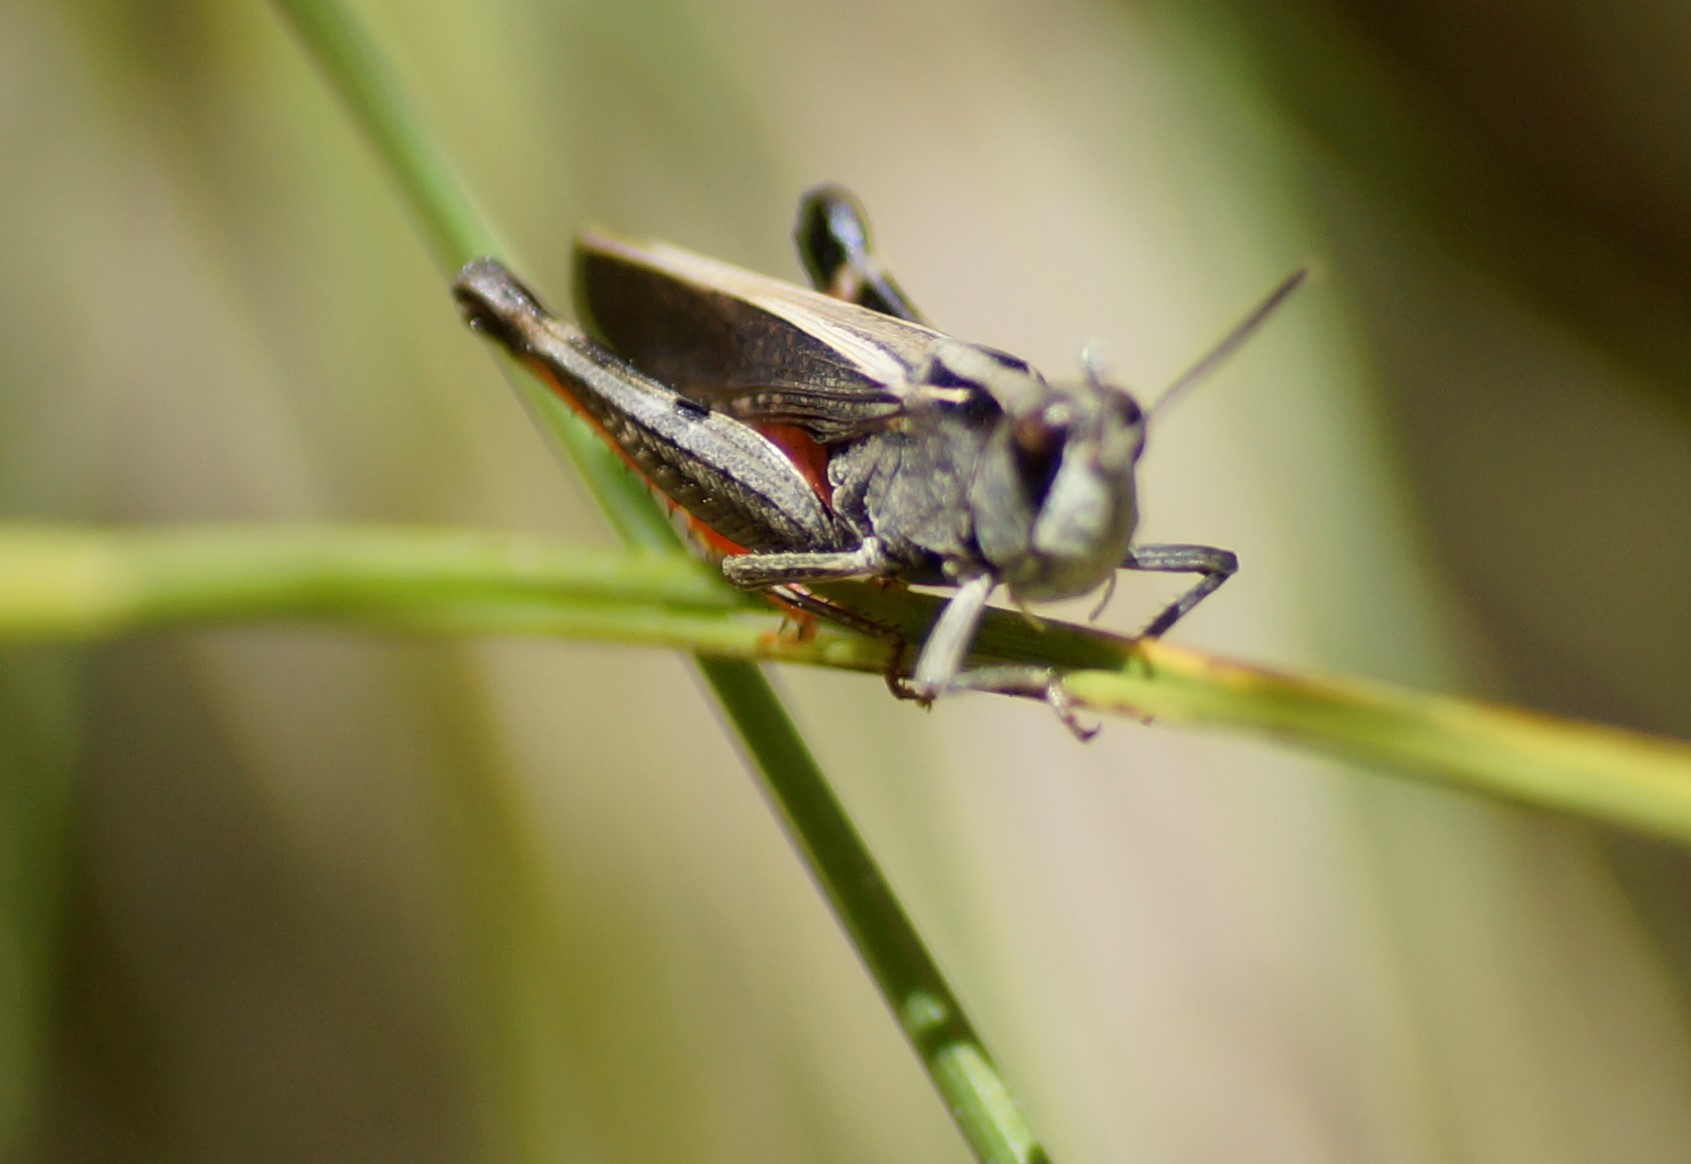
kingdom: Animalia
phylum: Arthropoda
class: Insecta
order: Orthoptera
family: Acrididae
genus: Cryptobothrus
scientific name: Cryptobothrus chrysophorus
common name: Golden bandwing
